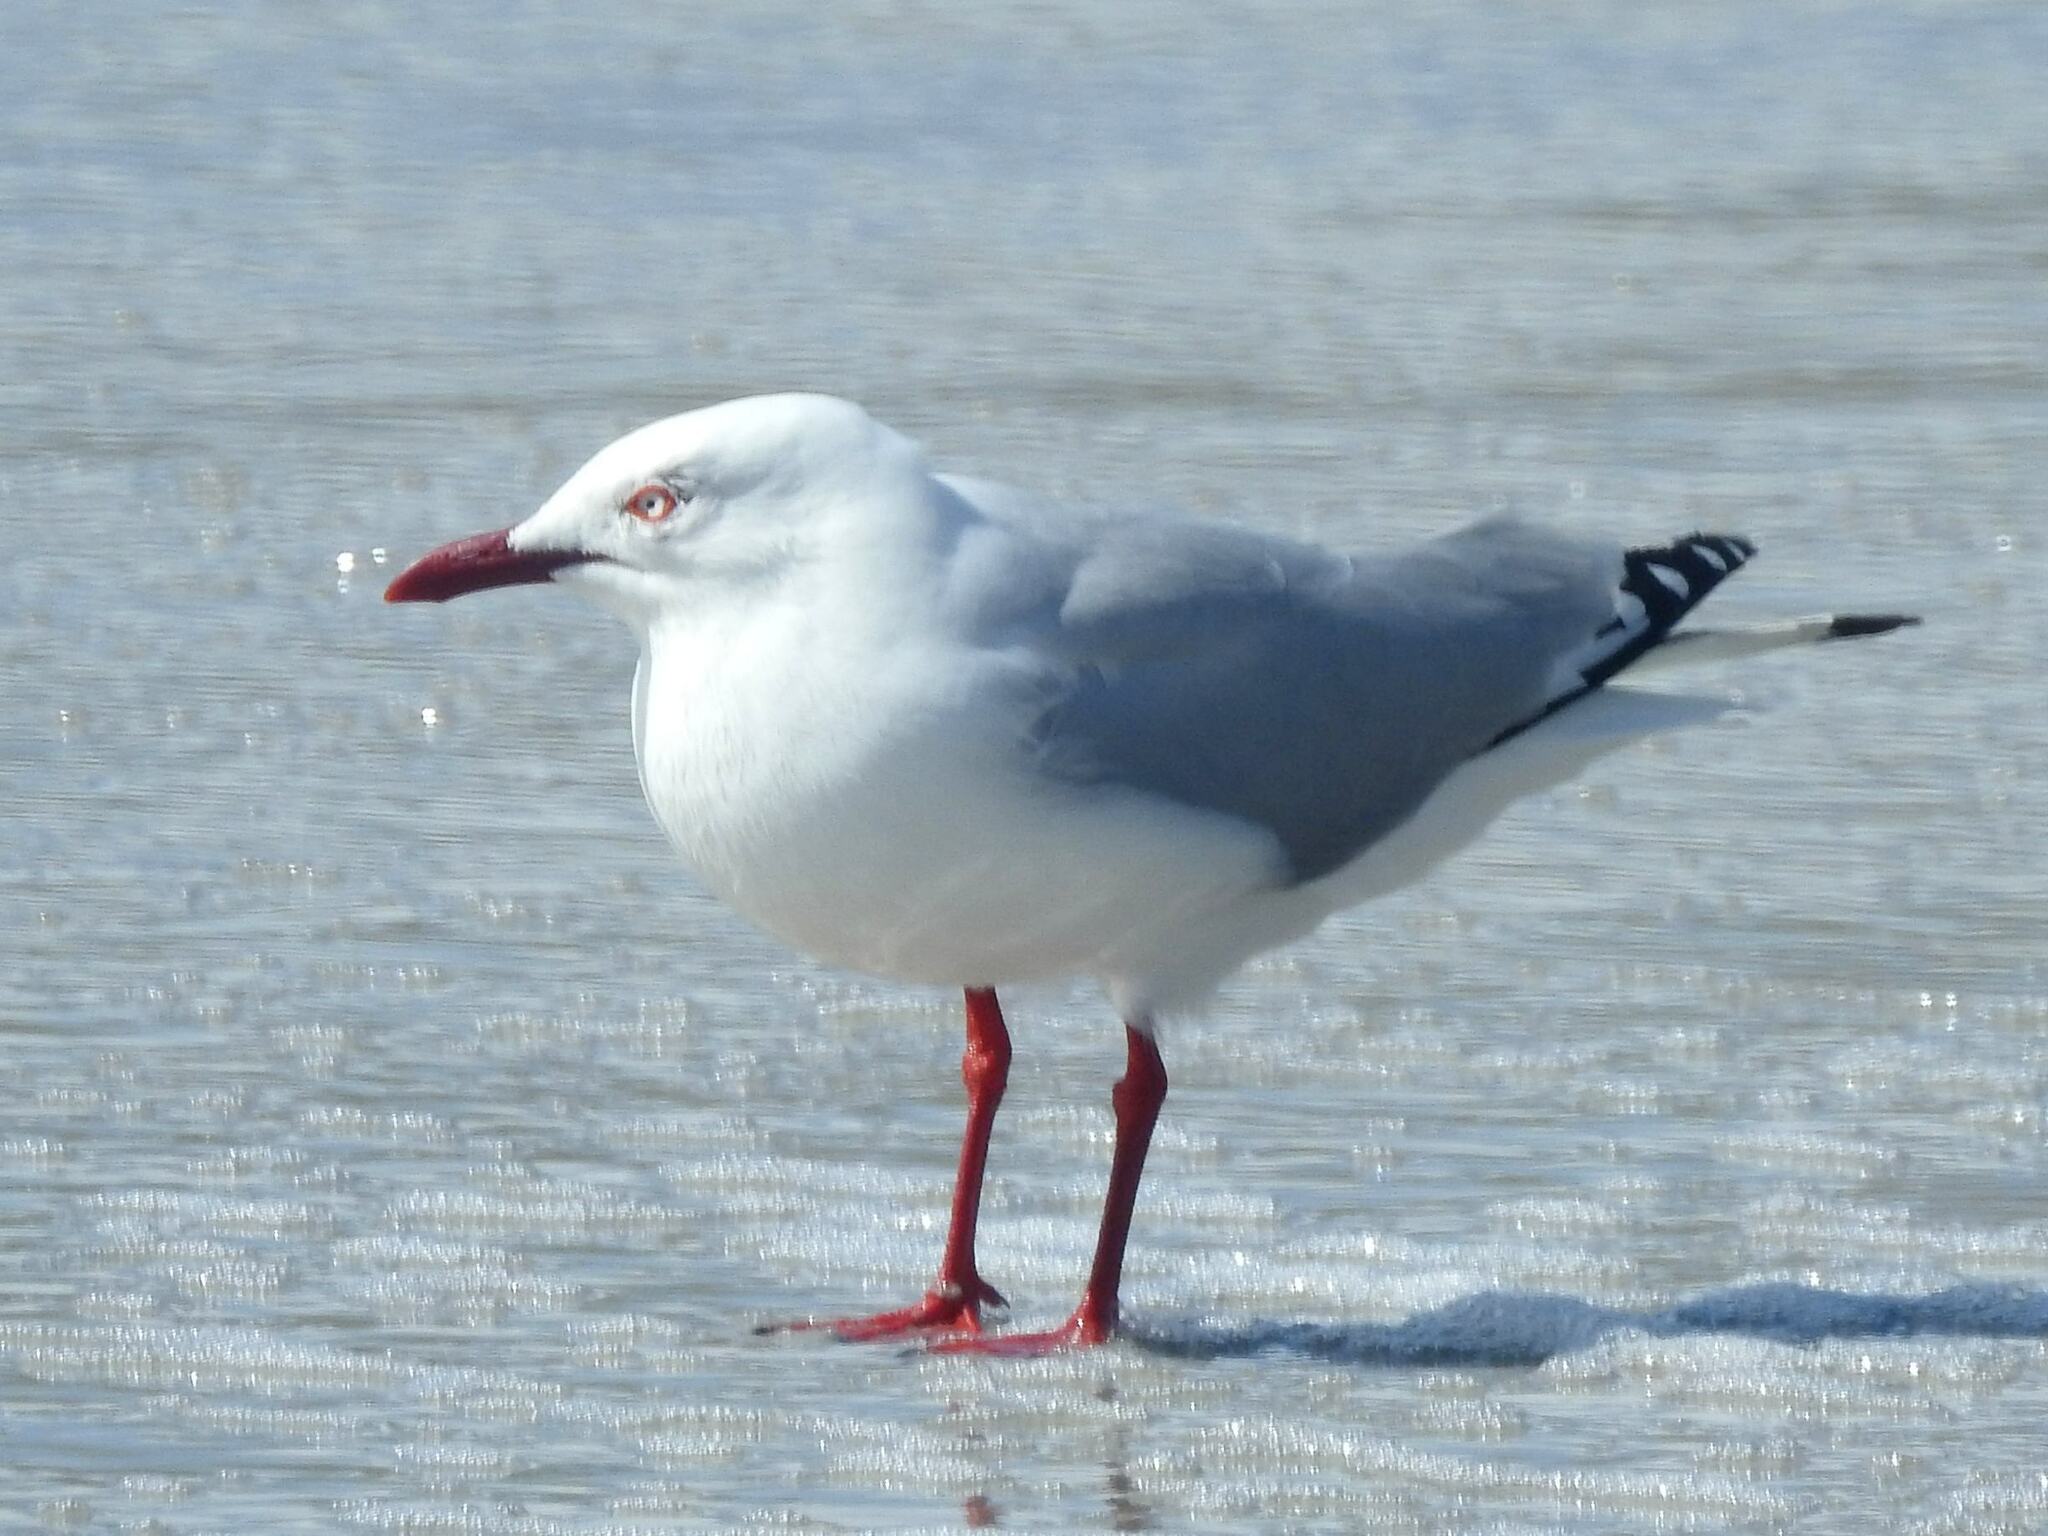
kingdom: Animalia
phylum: Chordata
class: Aves
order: Charadriiformes
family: Laridae
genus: Chroicocephalus
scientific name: Chroicocephalus novaehollandiae
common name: Silver gull
